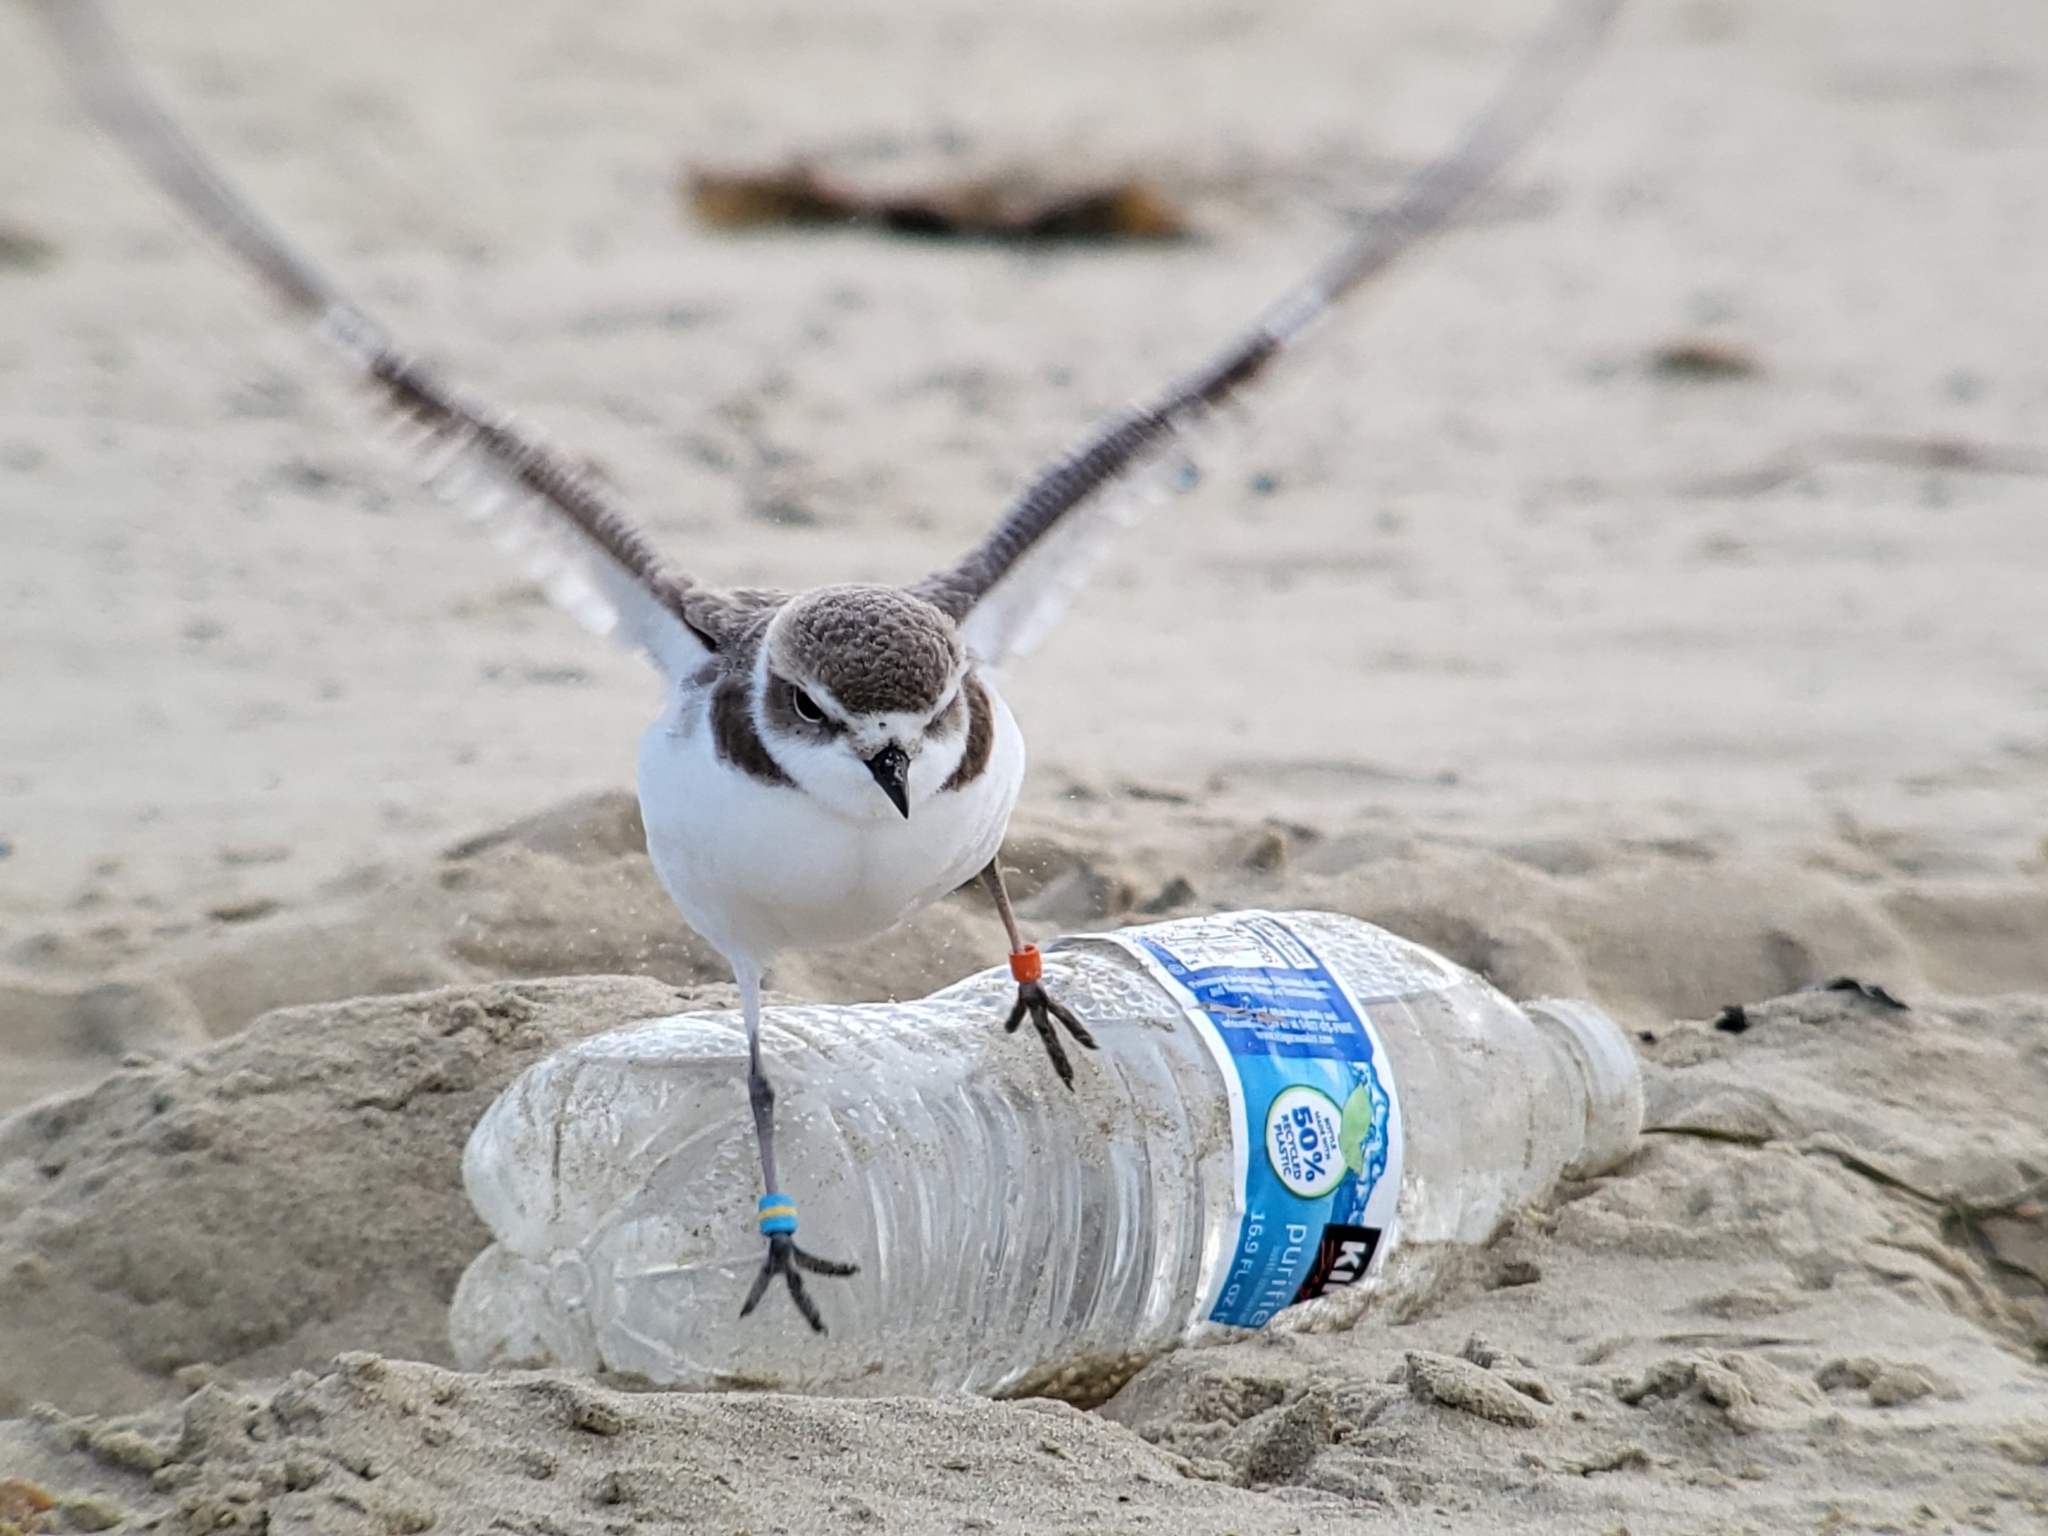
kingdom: Animalia
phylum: Chordata
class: Aves
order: Charadriiformes
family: Charadriidae
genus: Anarhynchus
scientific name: Anarhynchus
